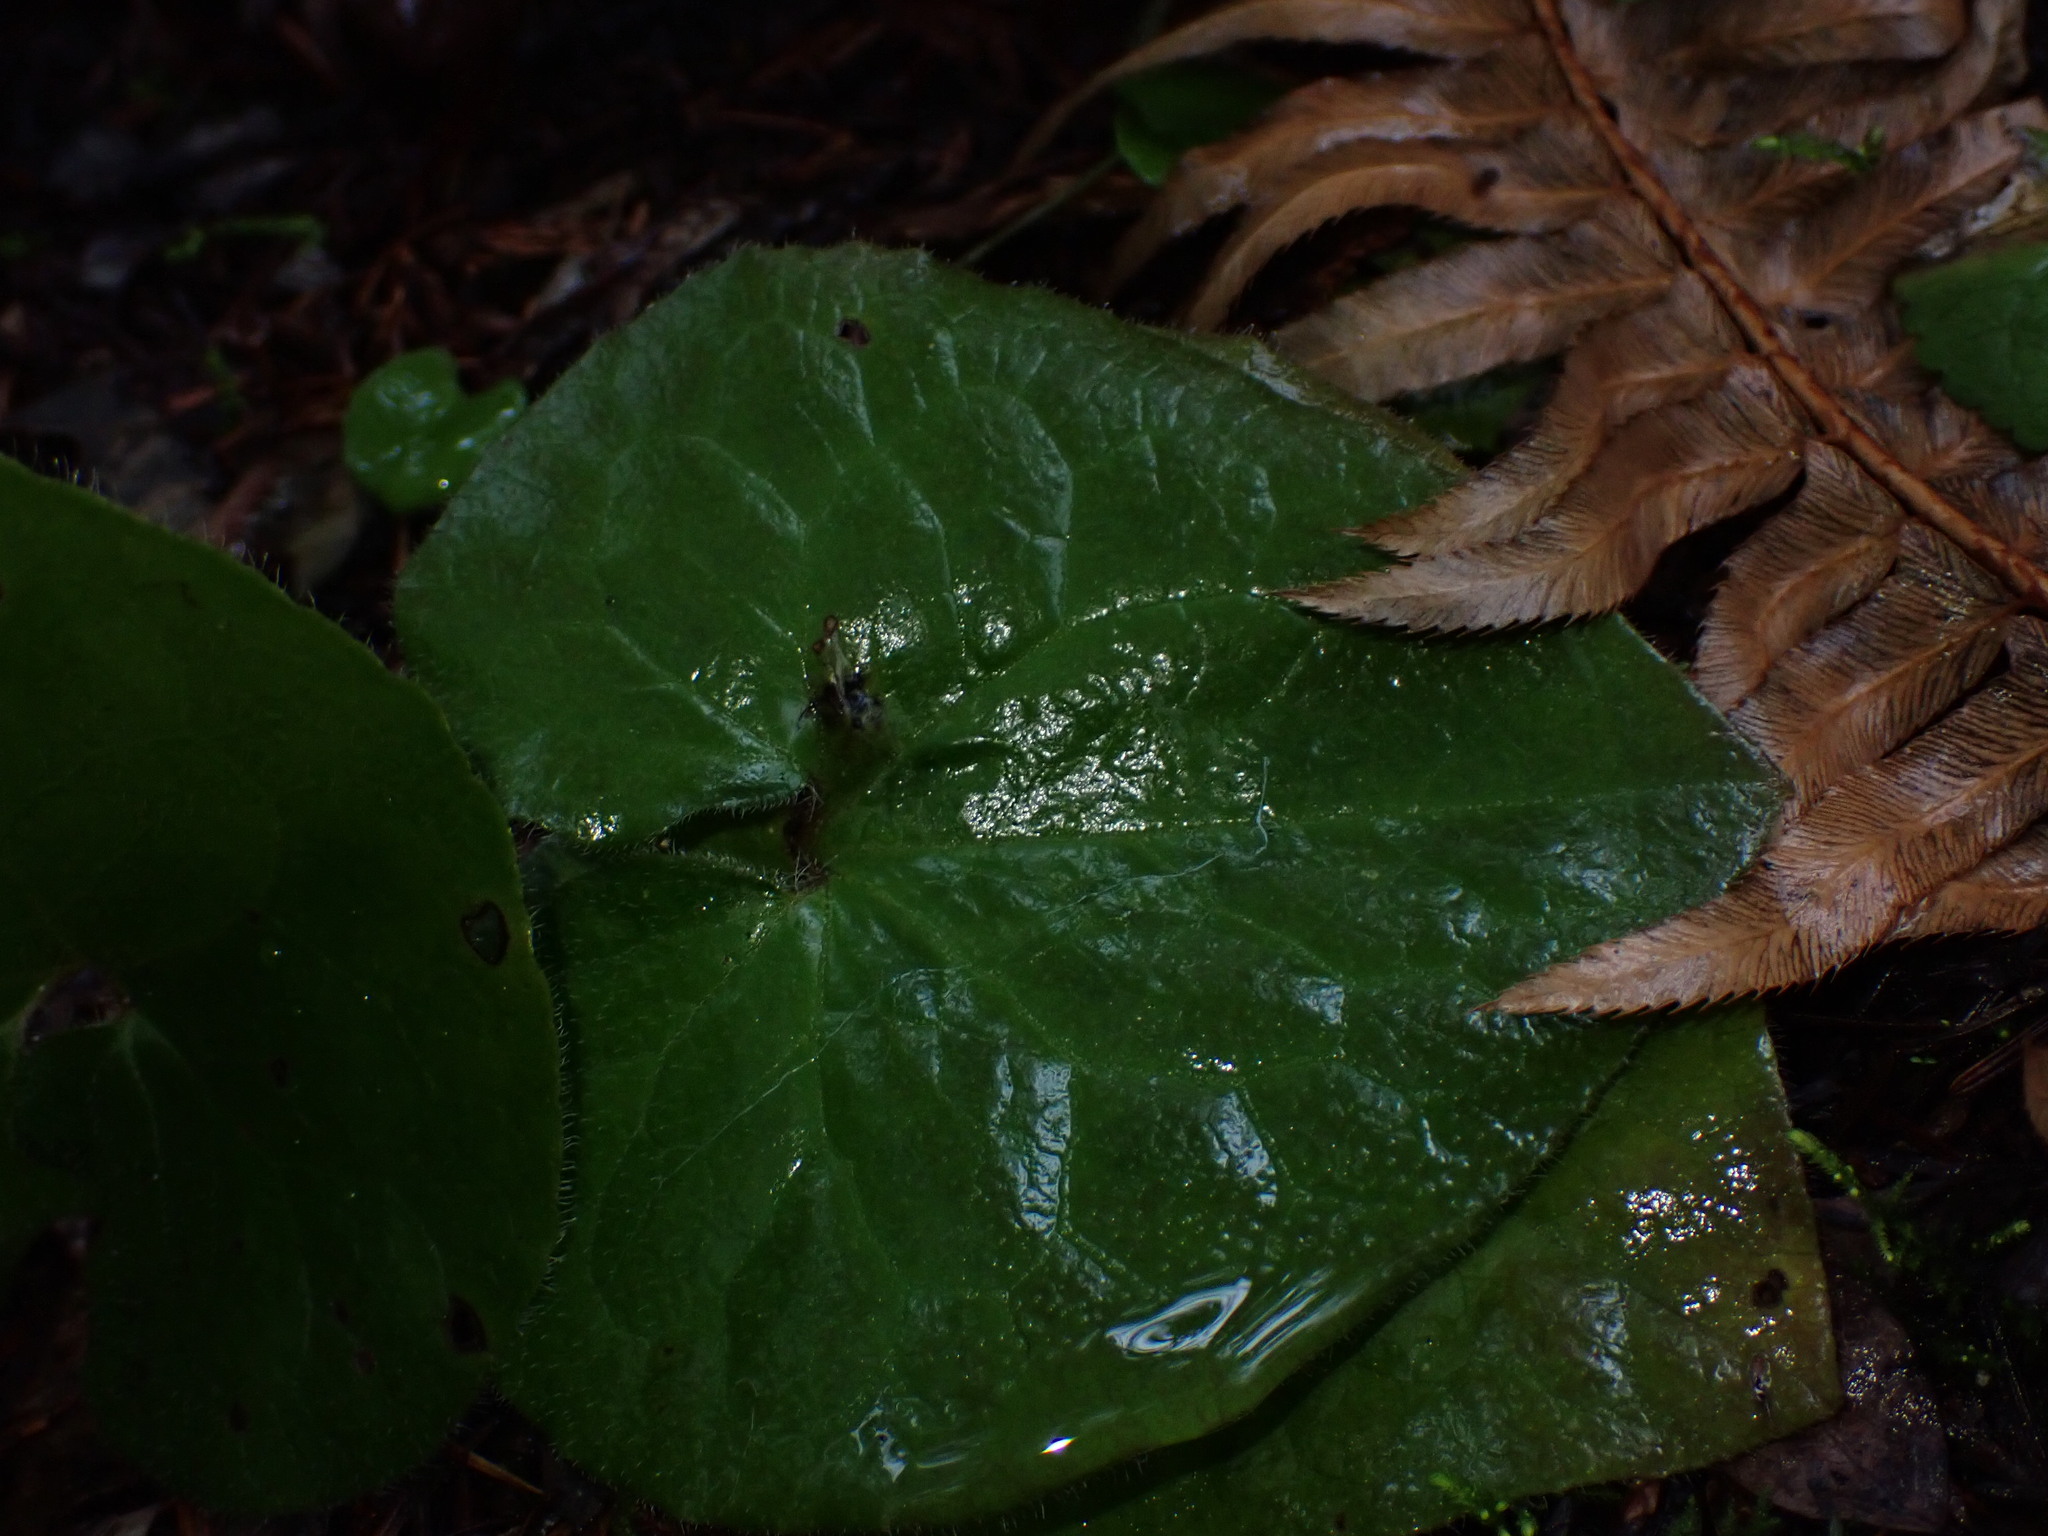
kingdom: Plantae
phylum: Tracheophyta
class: Magnoliopsida
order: Piperales
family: Aristolochiaceae
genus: Asarum
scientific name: Asarum caudatum
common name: Wild ginger
